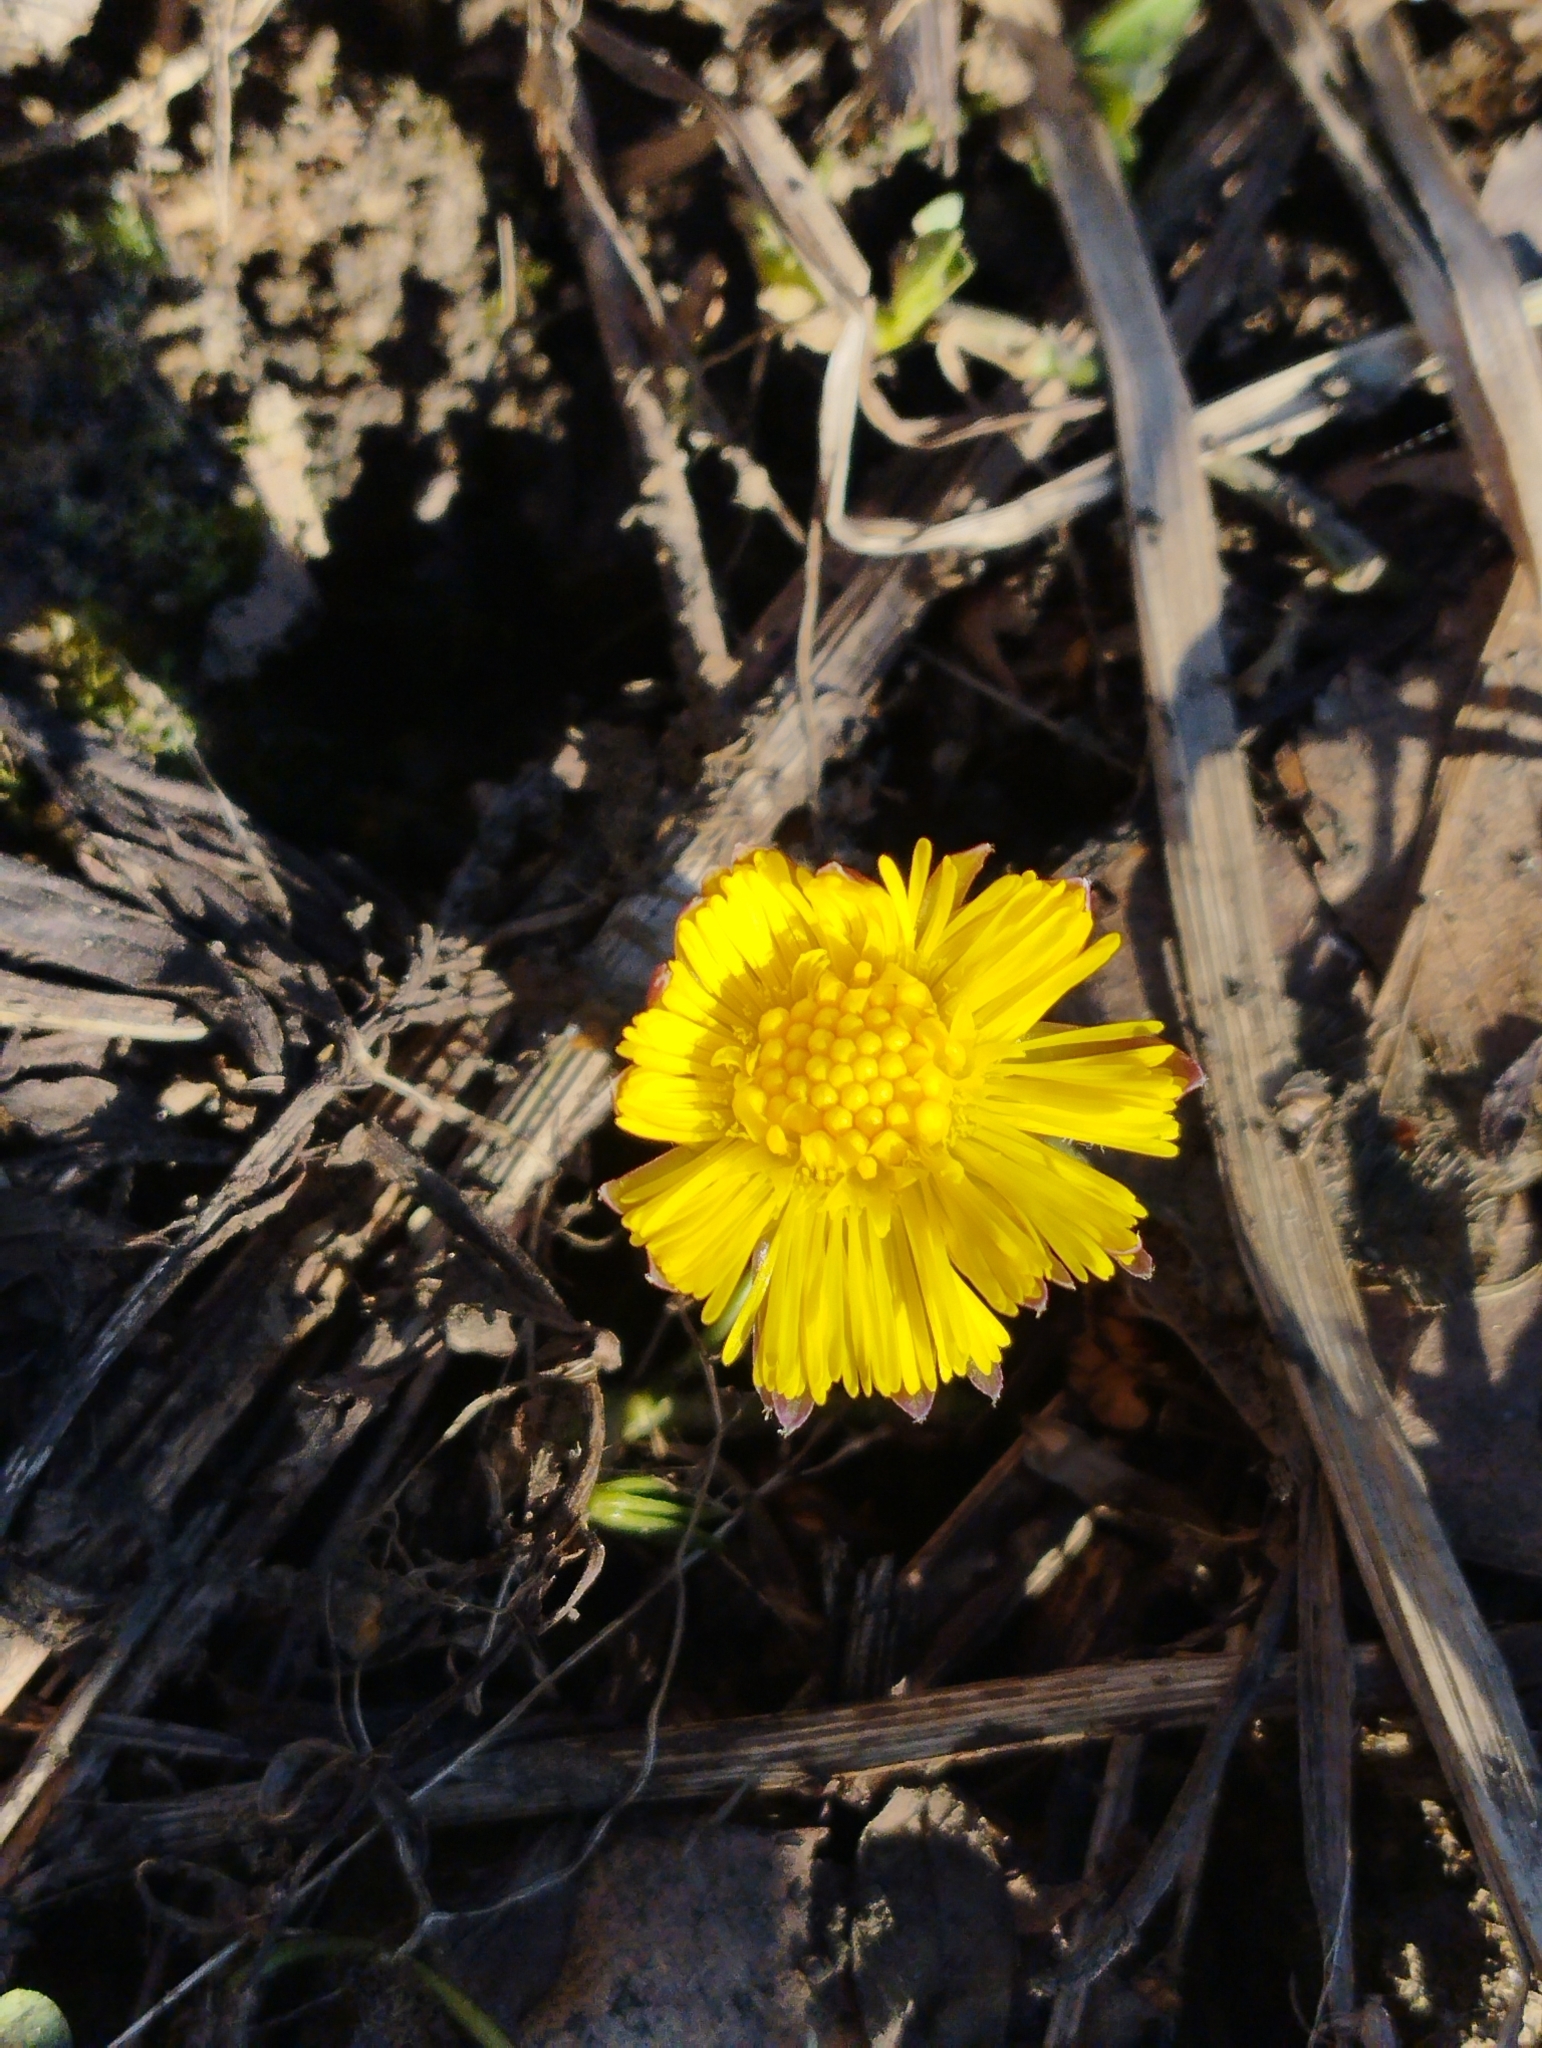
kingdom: Plantae
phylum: Tracheophyta
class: Magnoliopsida
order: Asterales
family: Asteraceae
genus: Tussilago
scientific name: Tussilago farfara
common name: Coltsfoot
